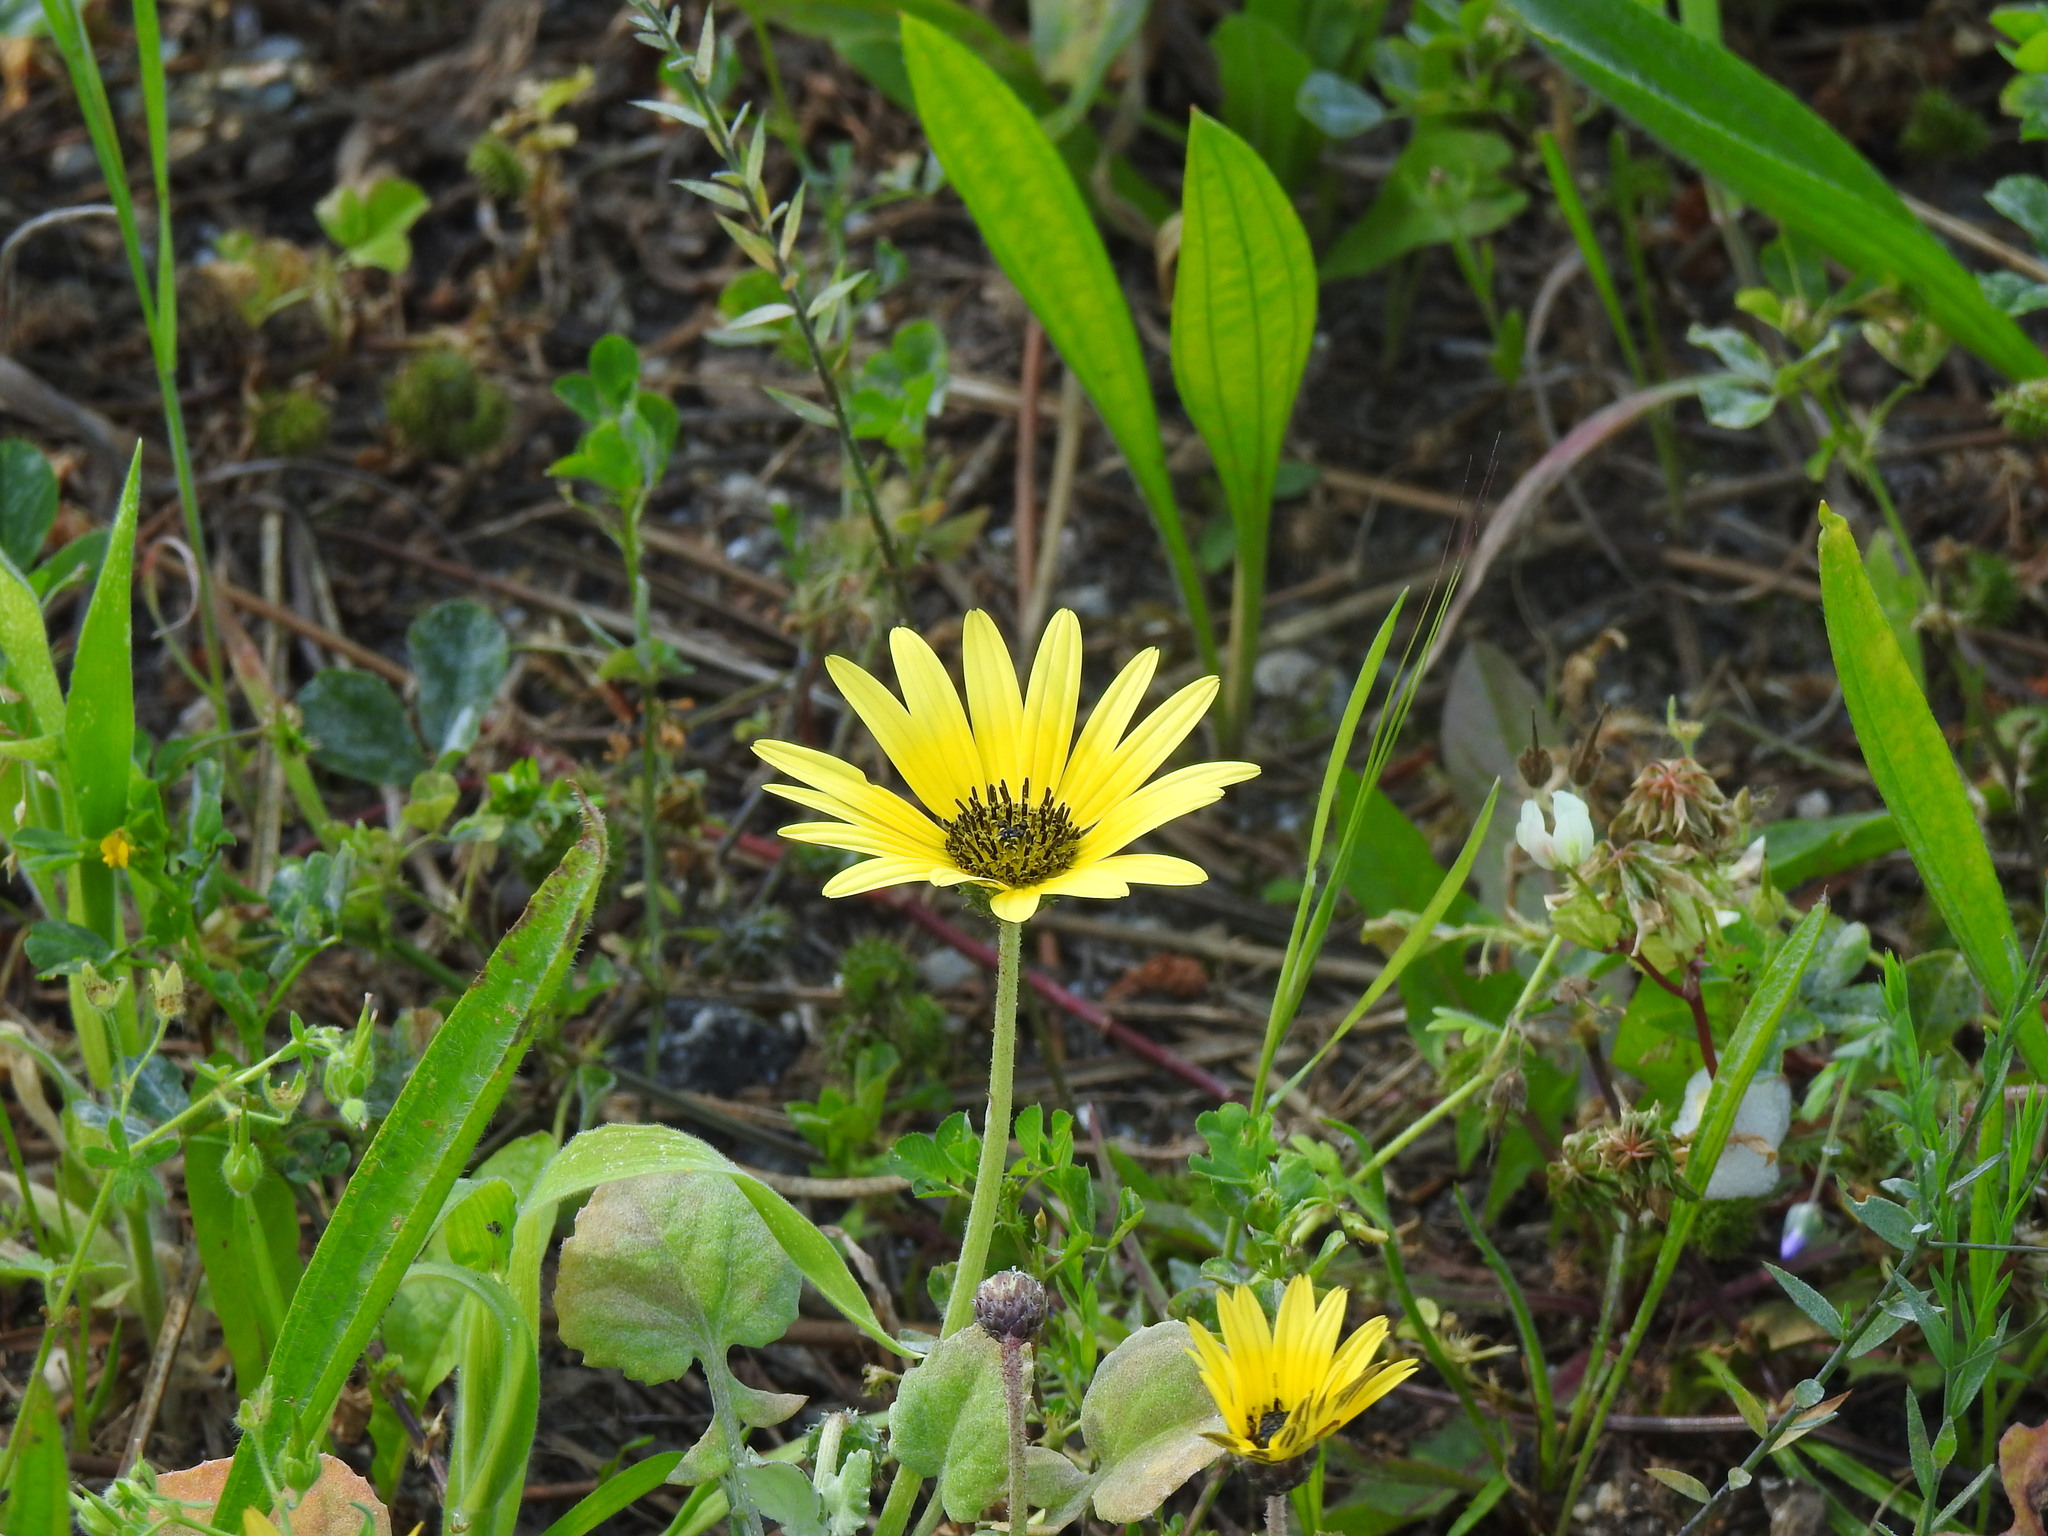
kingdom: Plantae
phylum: Tracheophyta
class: Magnoliopsida
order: Asterales
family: Asteraceae
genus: Arctotheca
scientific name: Arctotheca calendula
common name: Capeweed
